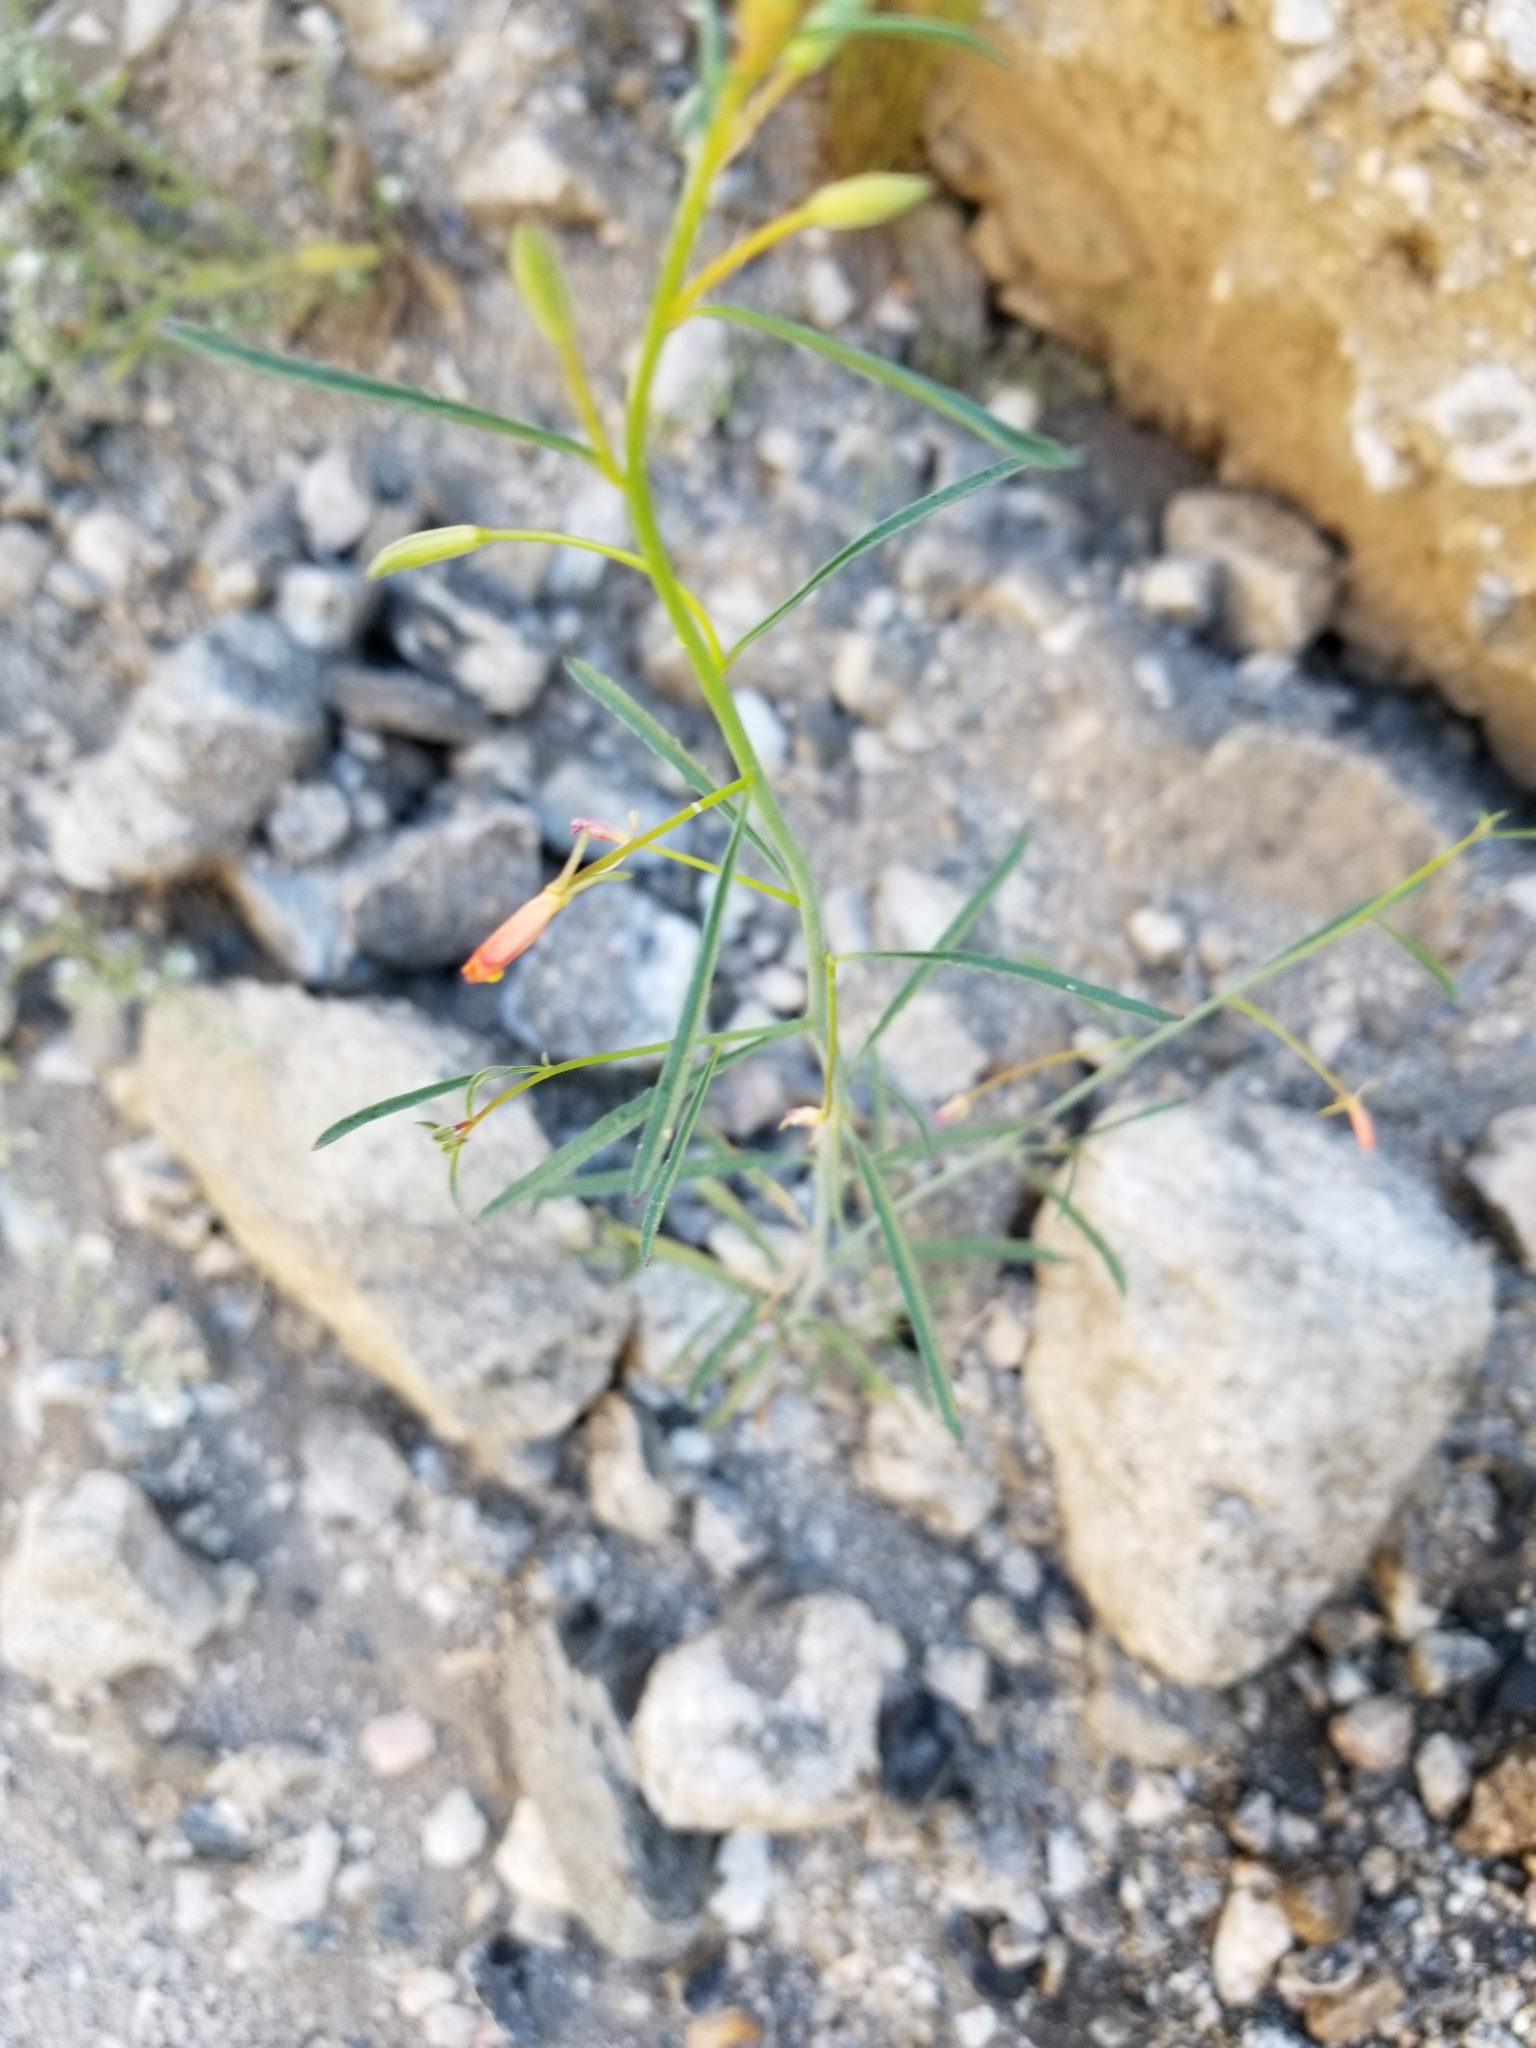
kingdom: Plantae
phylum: Tracheophyta
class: Magnoliopsida
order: Myrtales
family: Onagraceae
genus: Eulobus
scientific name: Eulobus californicus
